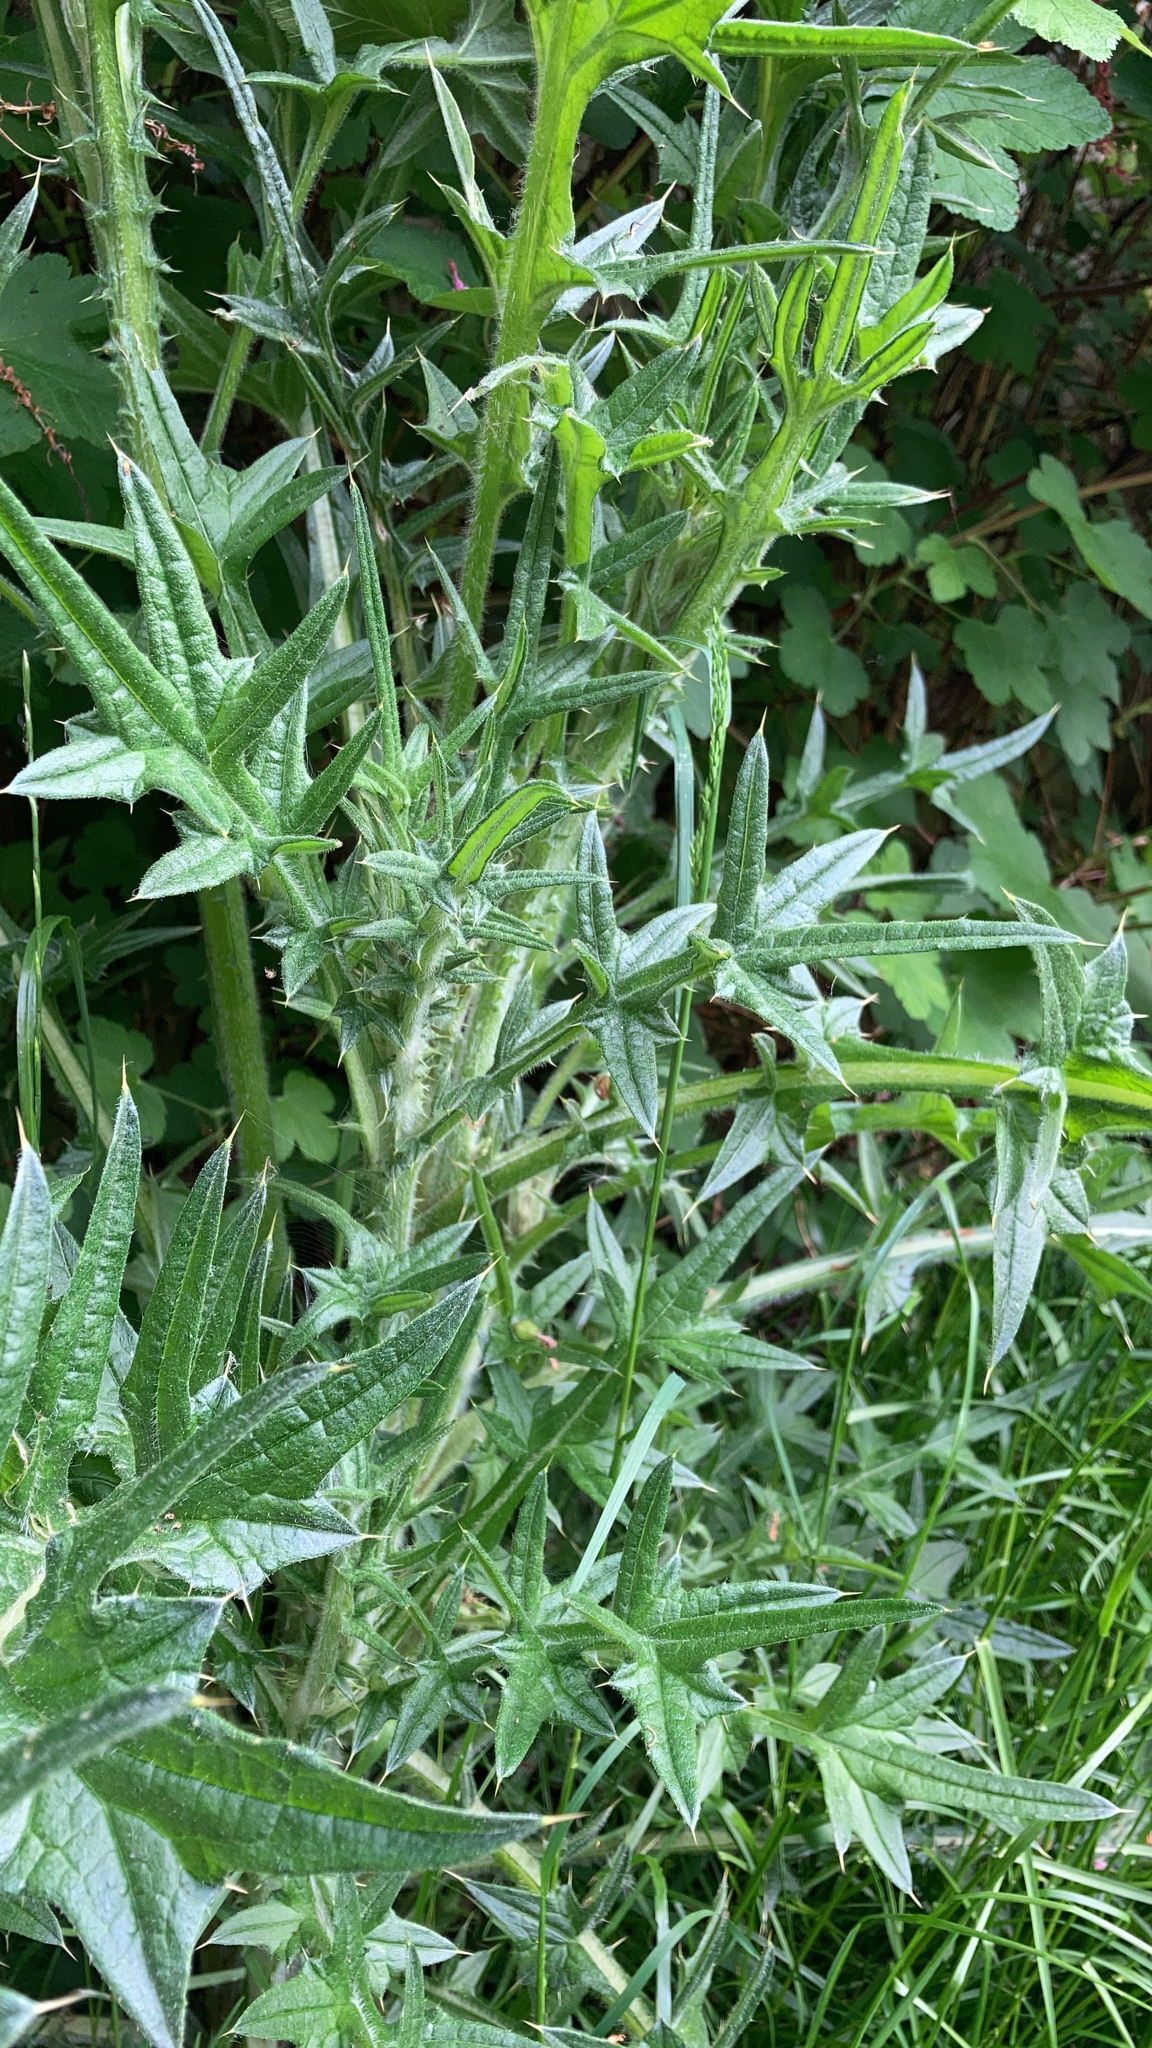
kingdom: Plantae
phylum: Tracheophyta
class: Magnoliopsida
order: Asterales
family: Asteraceae
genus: Cirsium
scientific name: Cirsium vulgare
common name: Bull thistle
